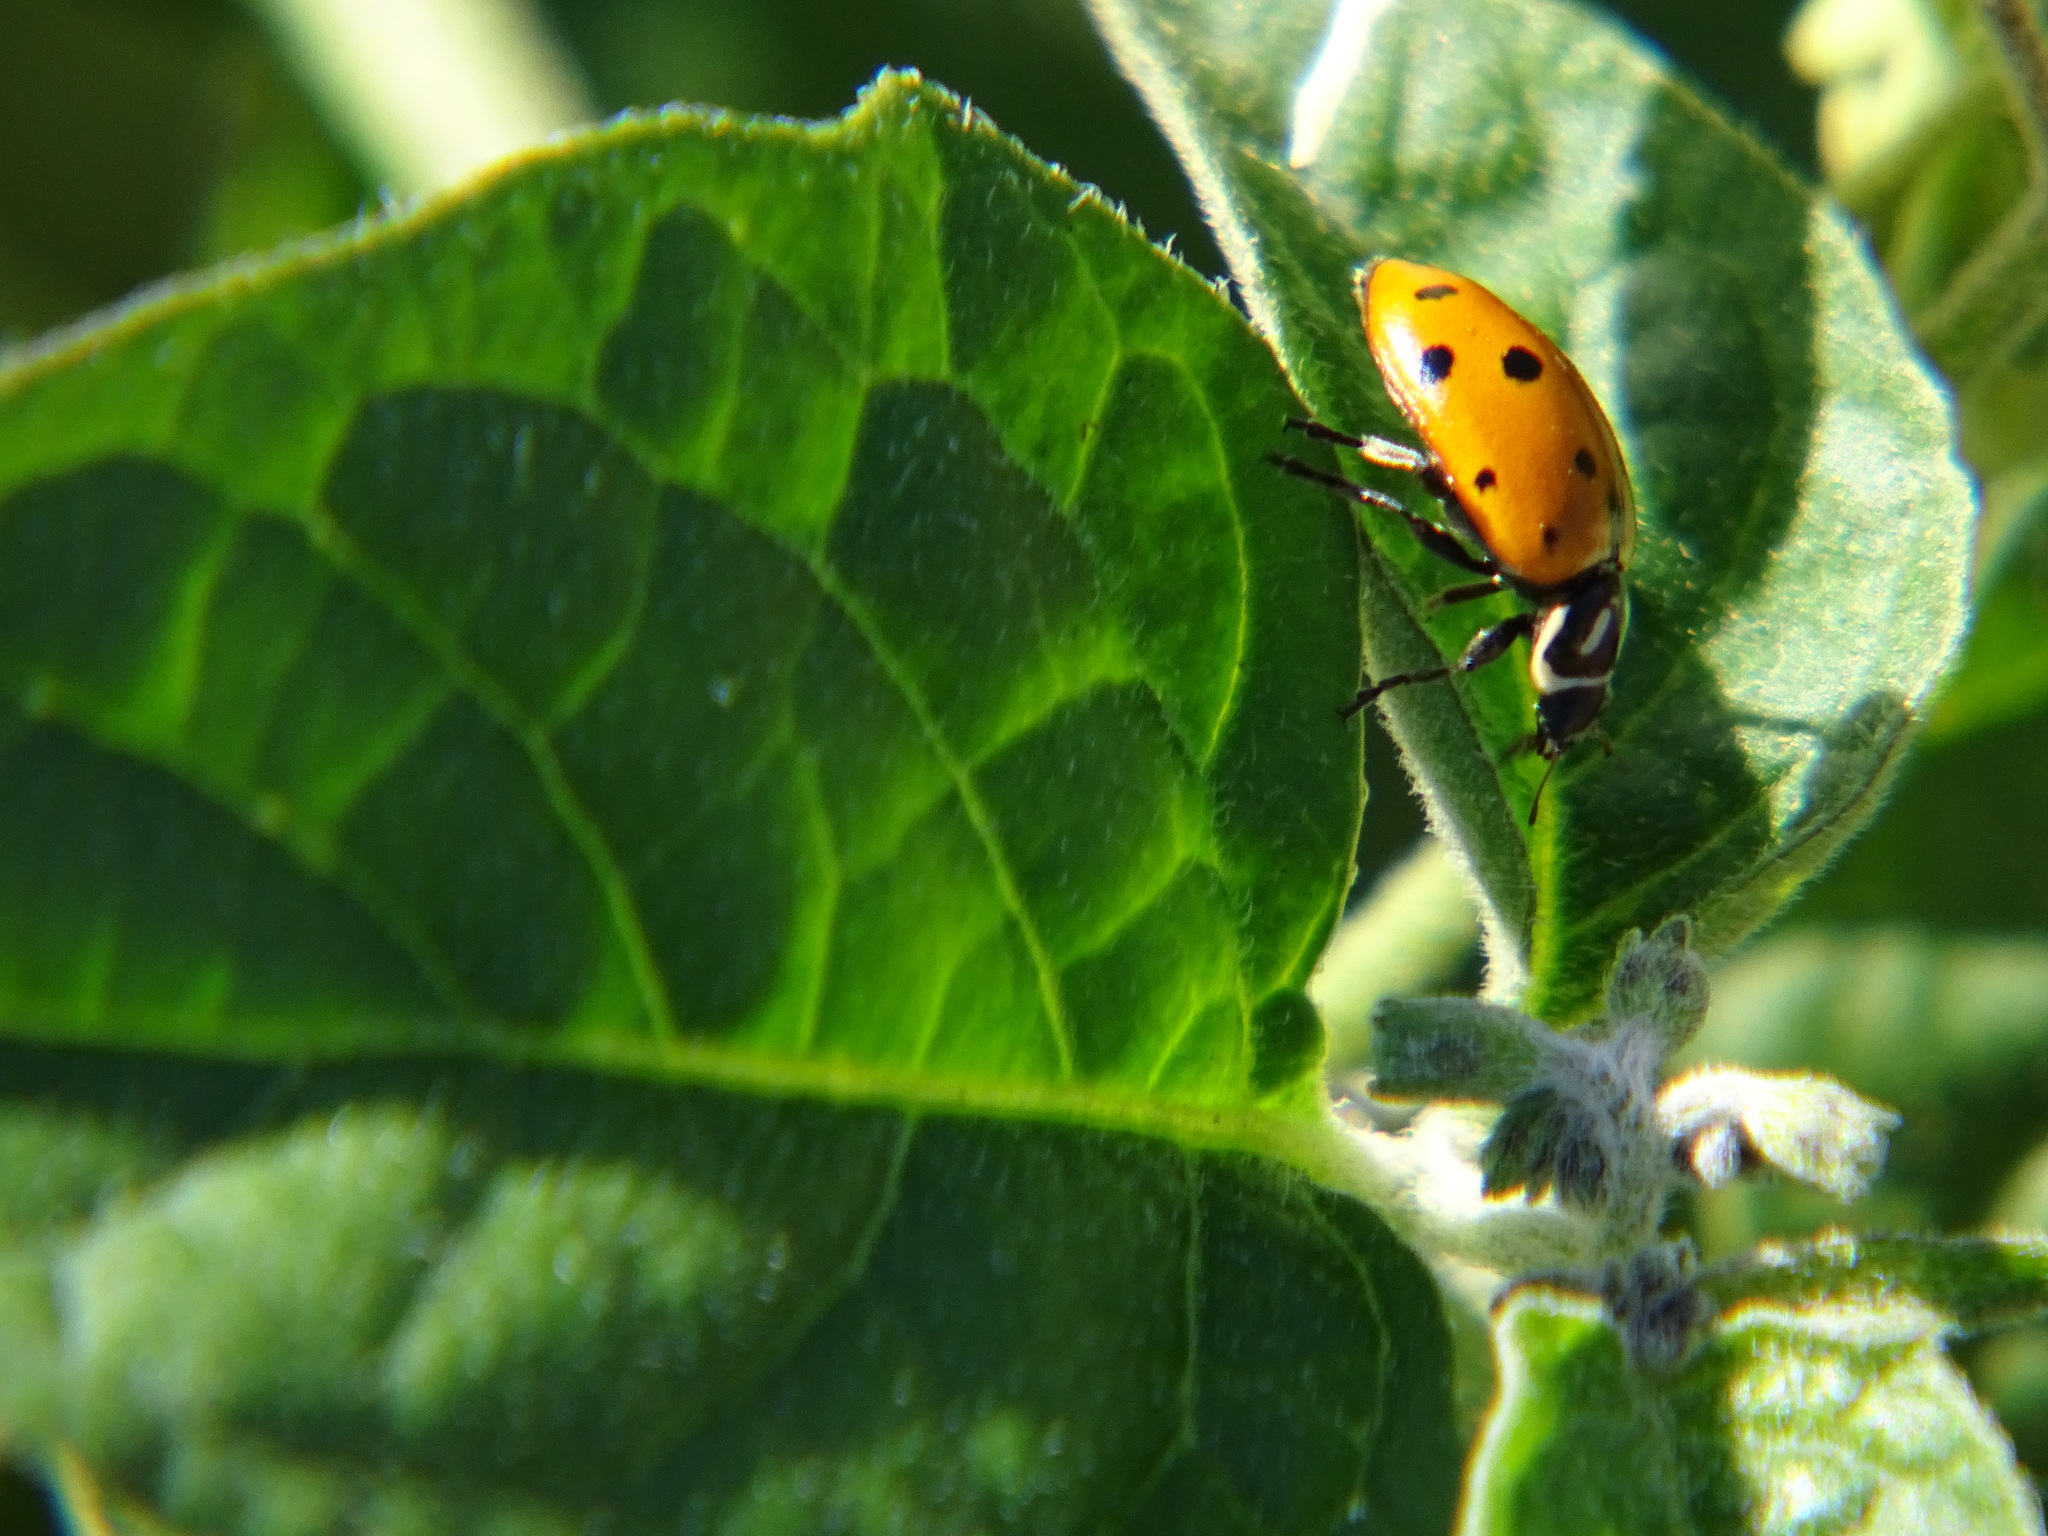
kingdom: Animalia
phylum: Arthropoda
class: Insecta
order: Coleoptera
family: Coccinellidae
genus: Hippodamia
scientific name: Hippodamia convergens
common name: Convergent lady beetle
